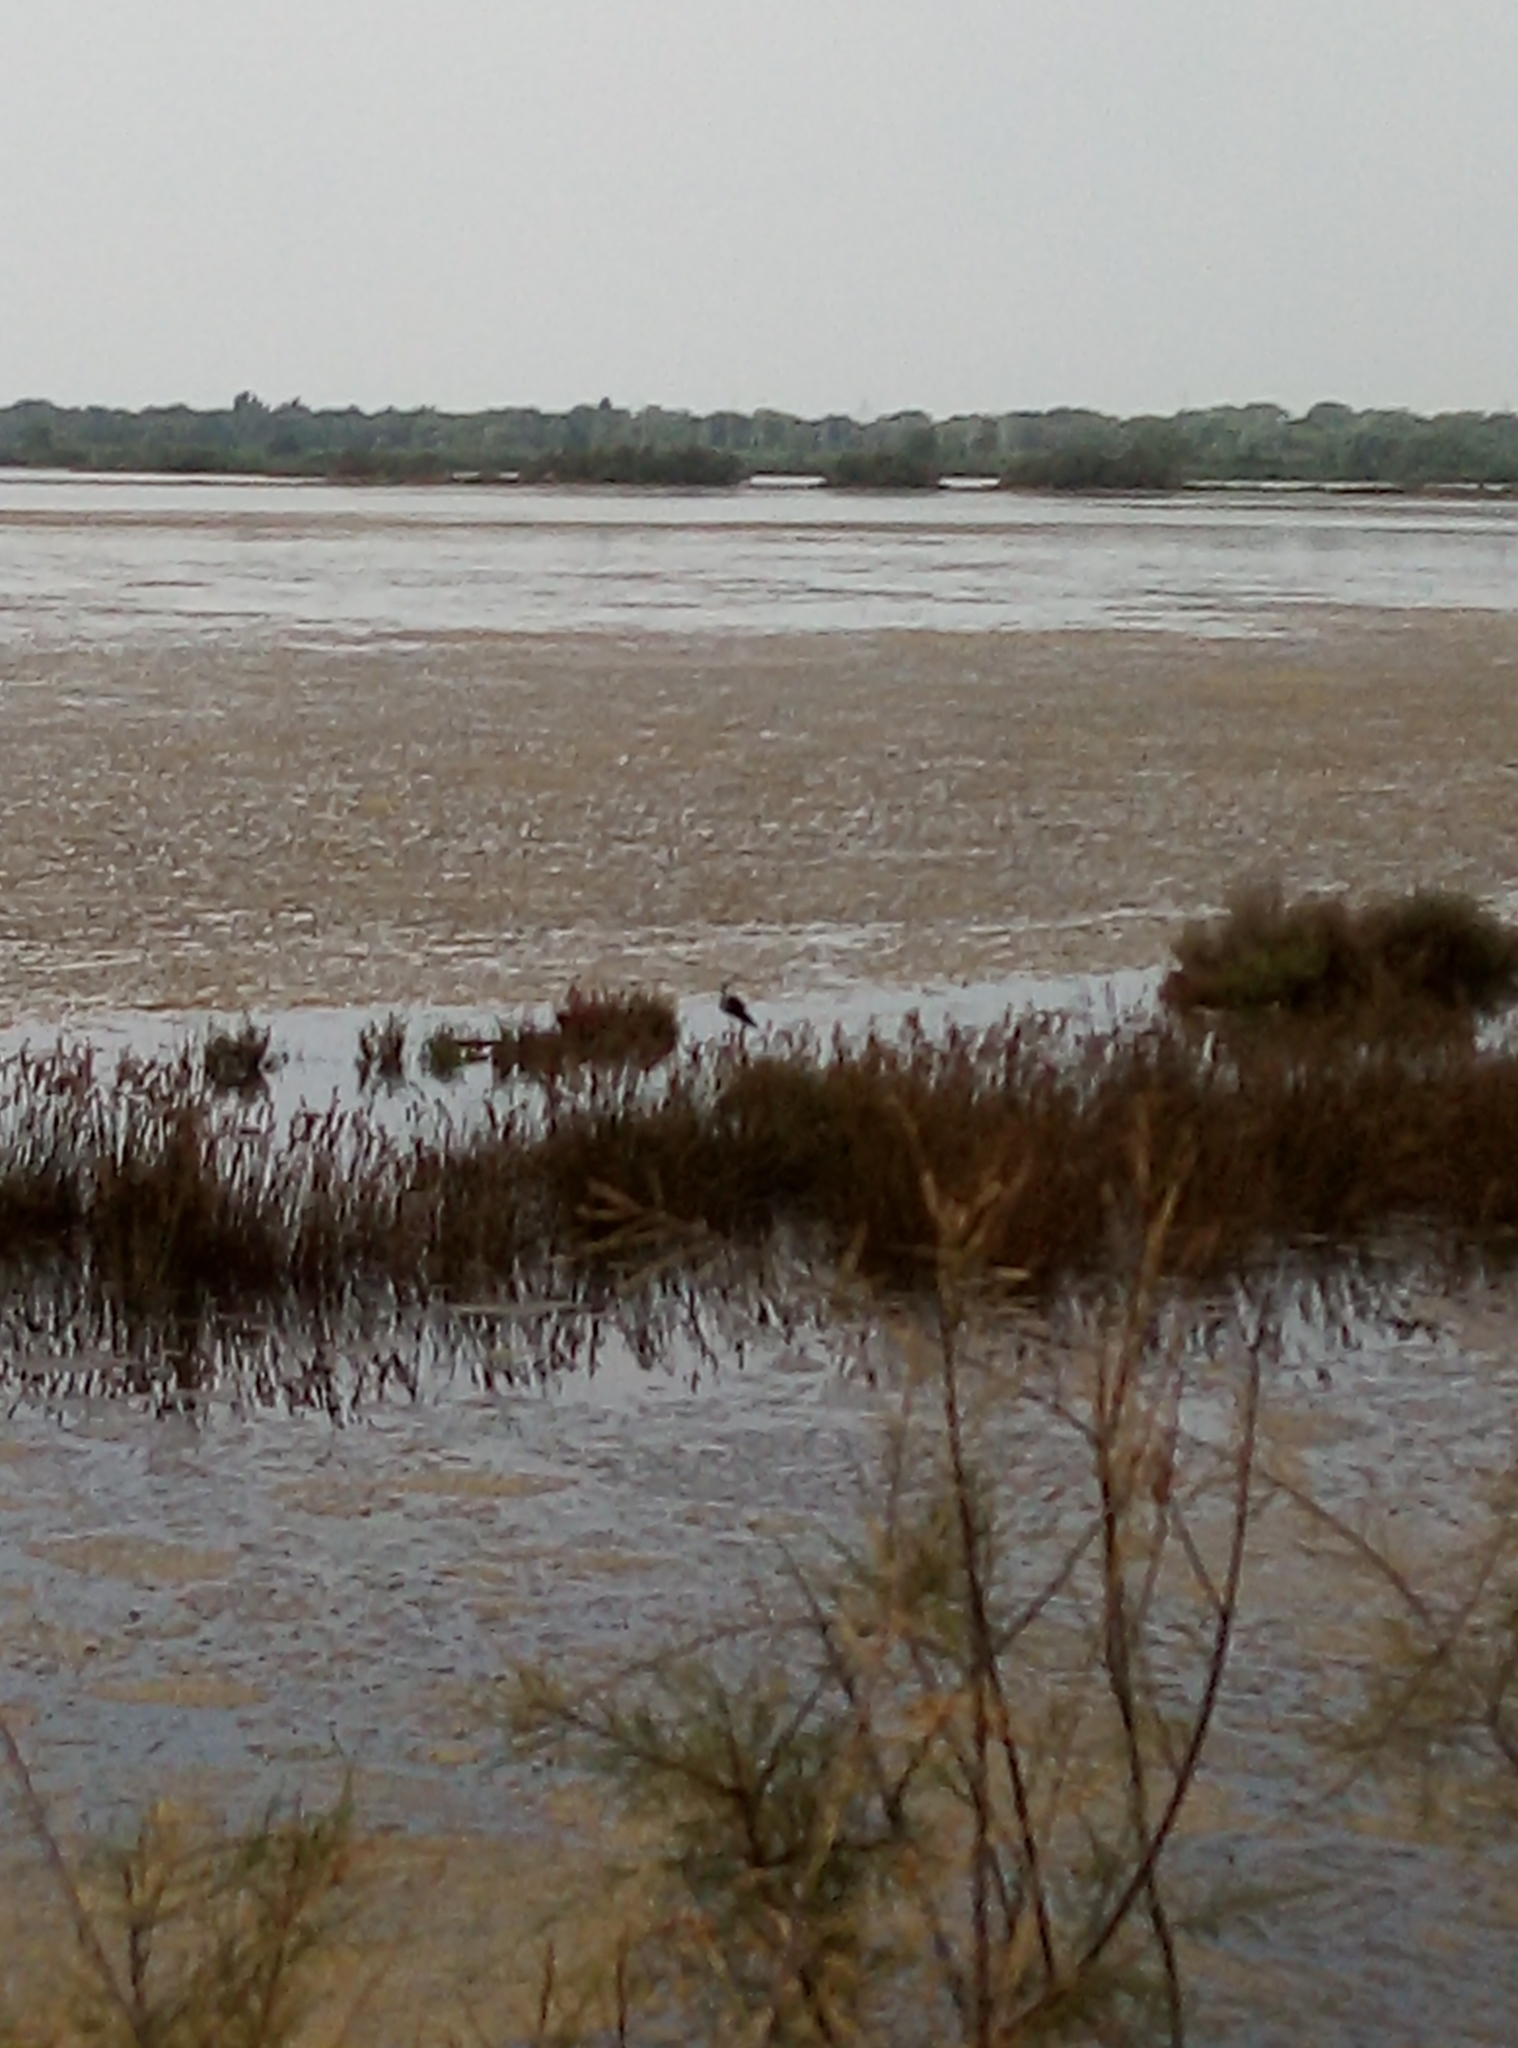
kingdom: Animalia
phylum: Chordata
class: Aves
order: Charadriiformes
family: Recurvirostridae
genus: Himantopus
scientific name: Himantopus himantopus
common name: Black-winged stilt
